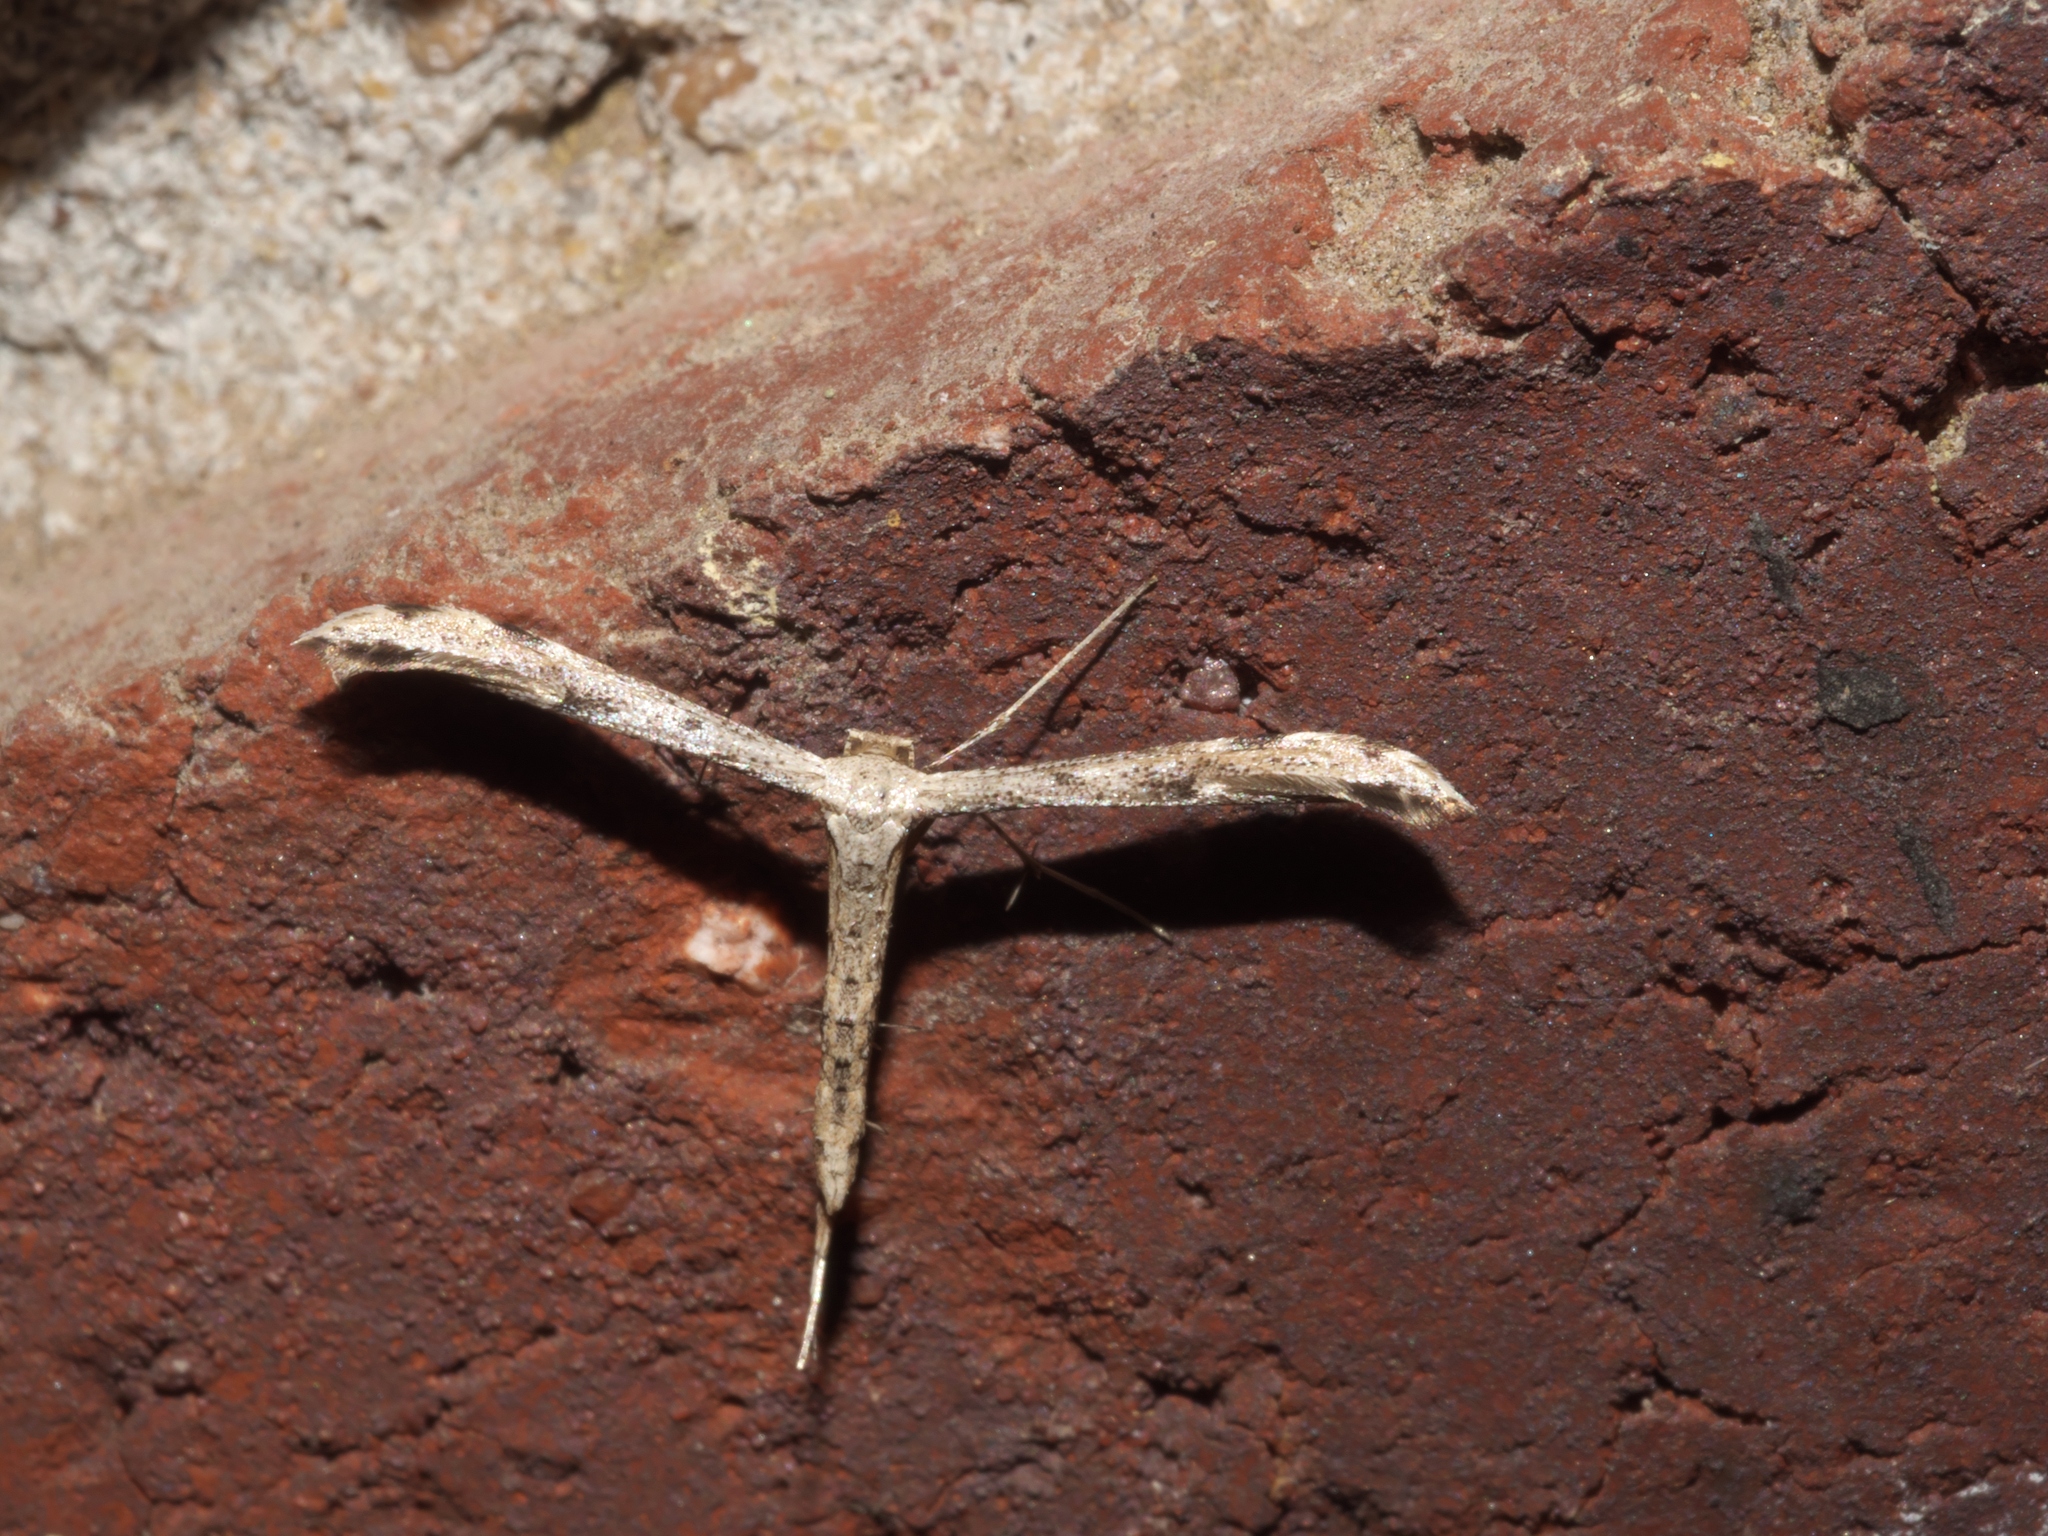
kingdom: Animalia
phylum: Arthropoda
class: Insecta
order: Lepidoptera
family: Pterophoridae
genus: Adaina
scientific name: Adaina ambrosiae
